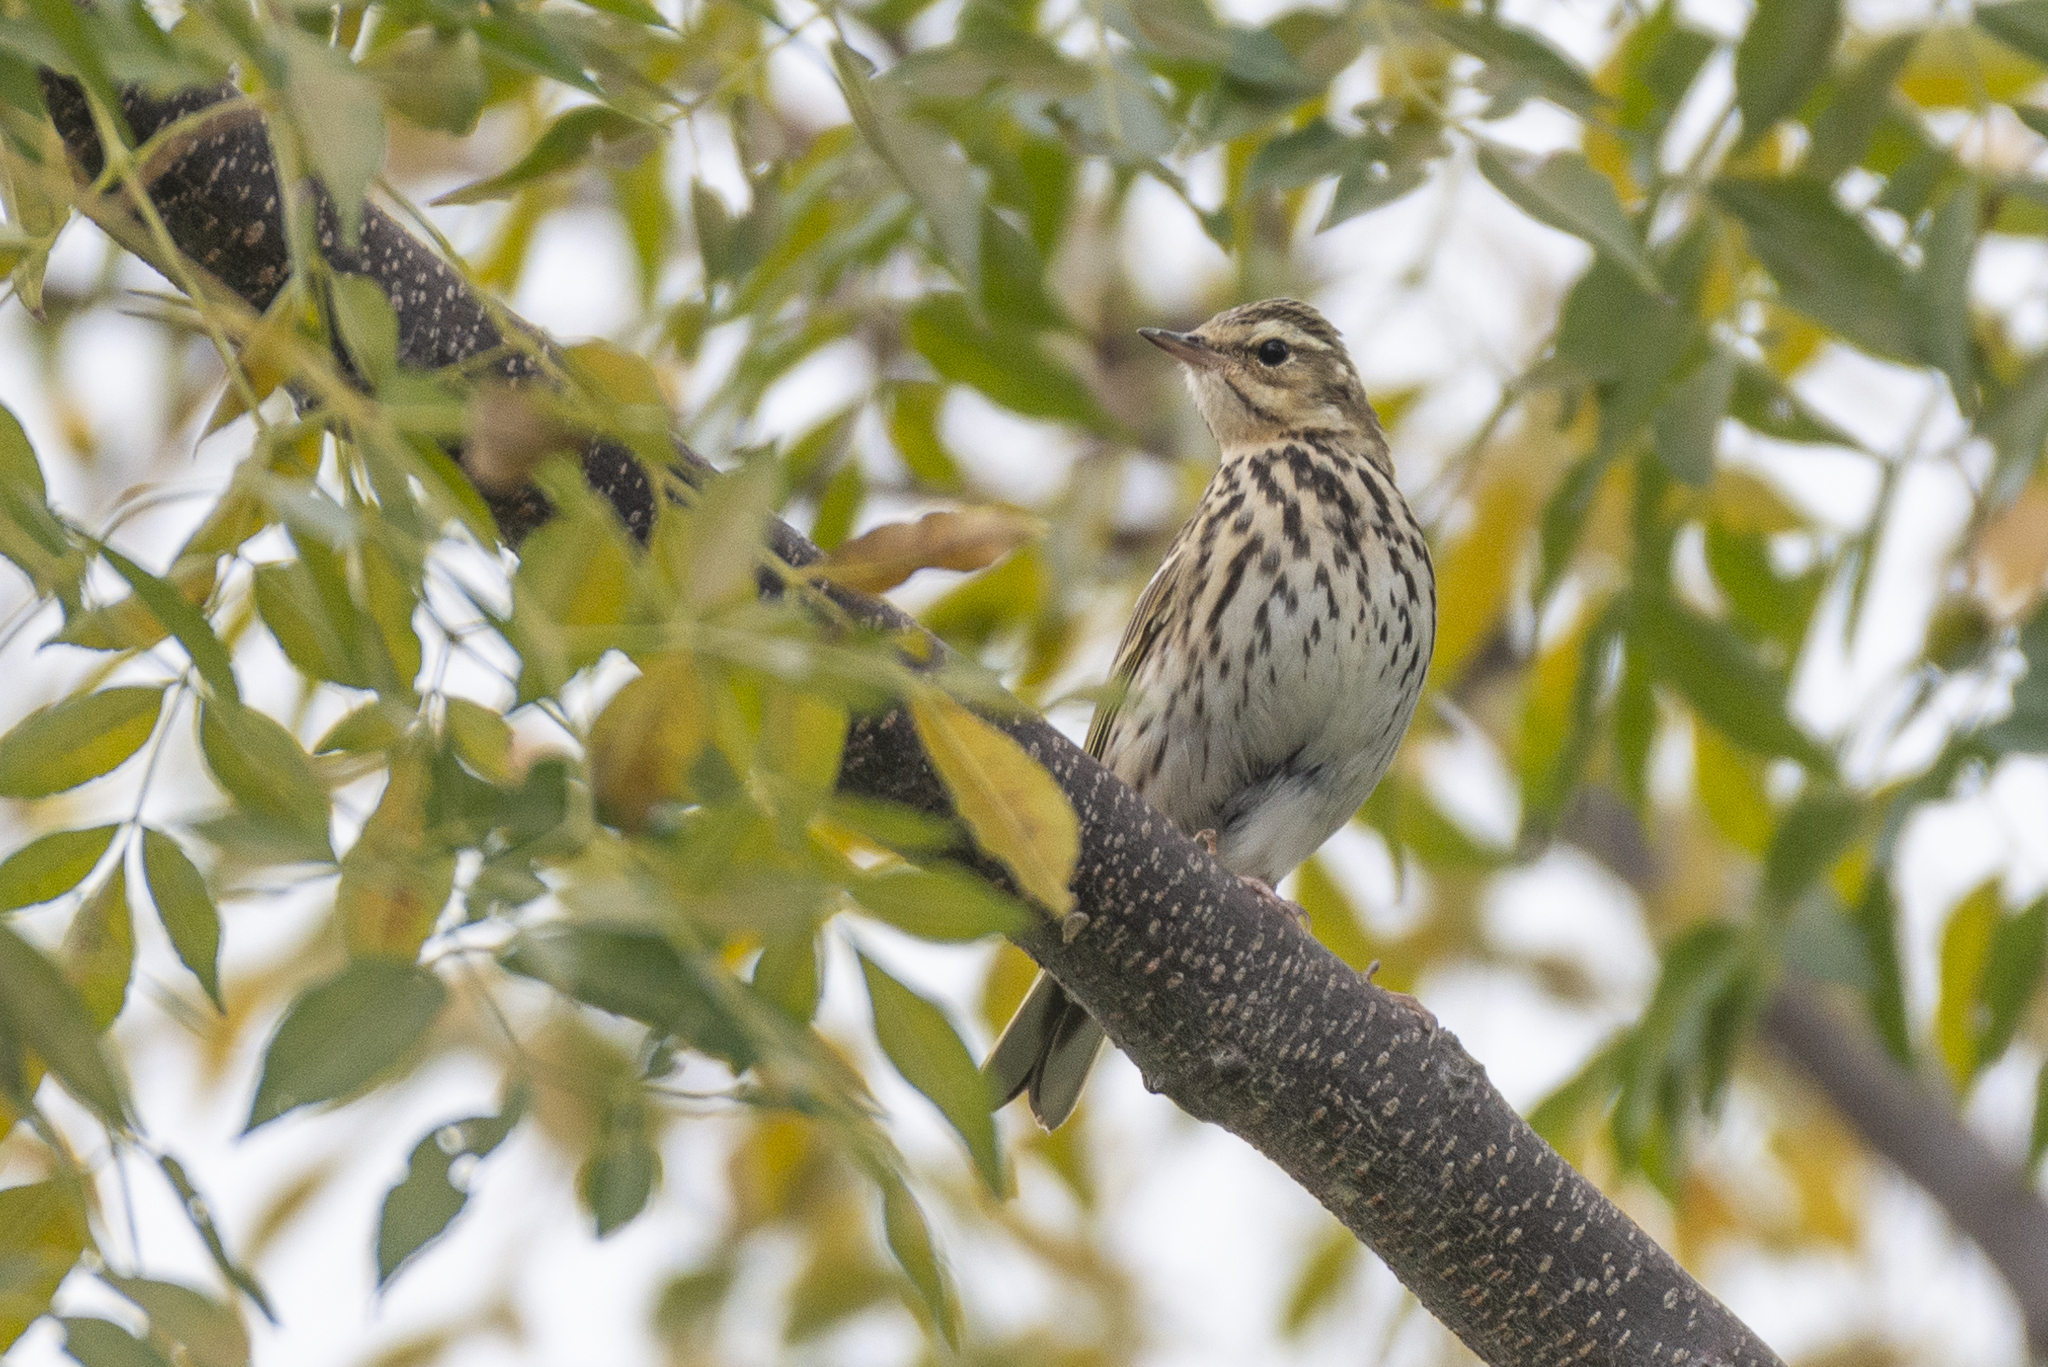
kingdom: Animalia
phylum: Chordata
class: Aves
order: Passeriformes
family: Motacillidae
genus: Anthus
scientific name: Anthus hodgsoni
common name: Olive-backed pipit
